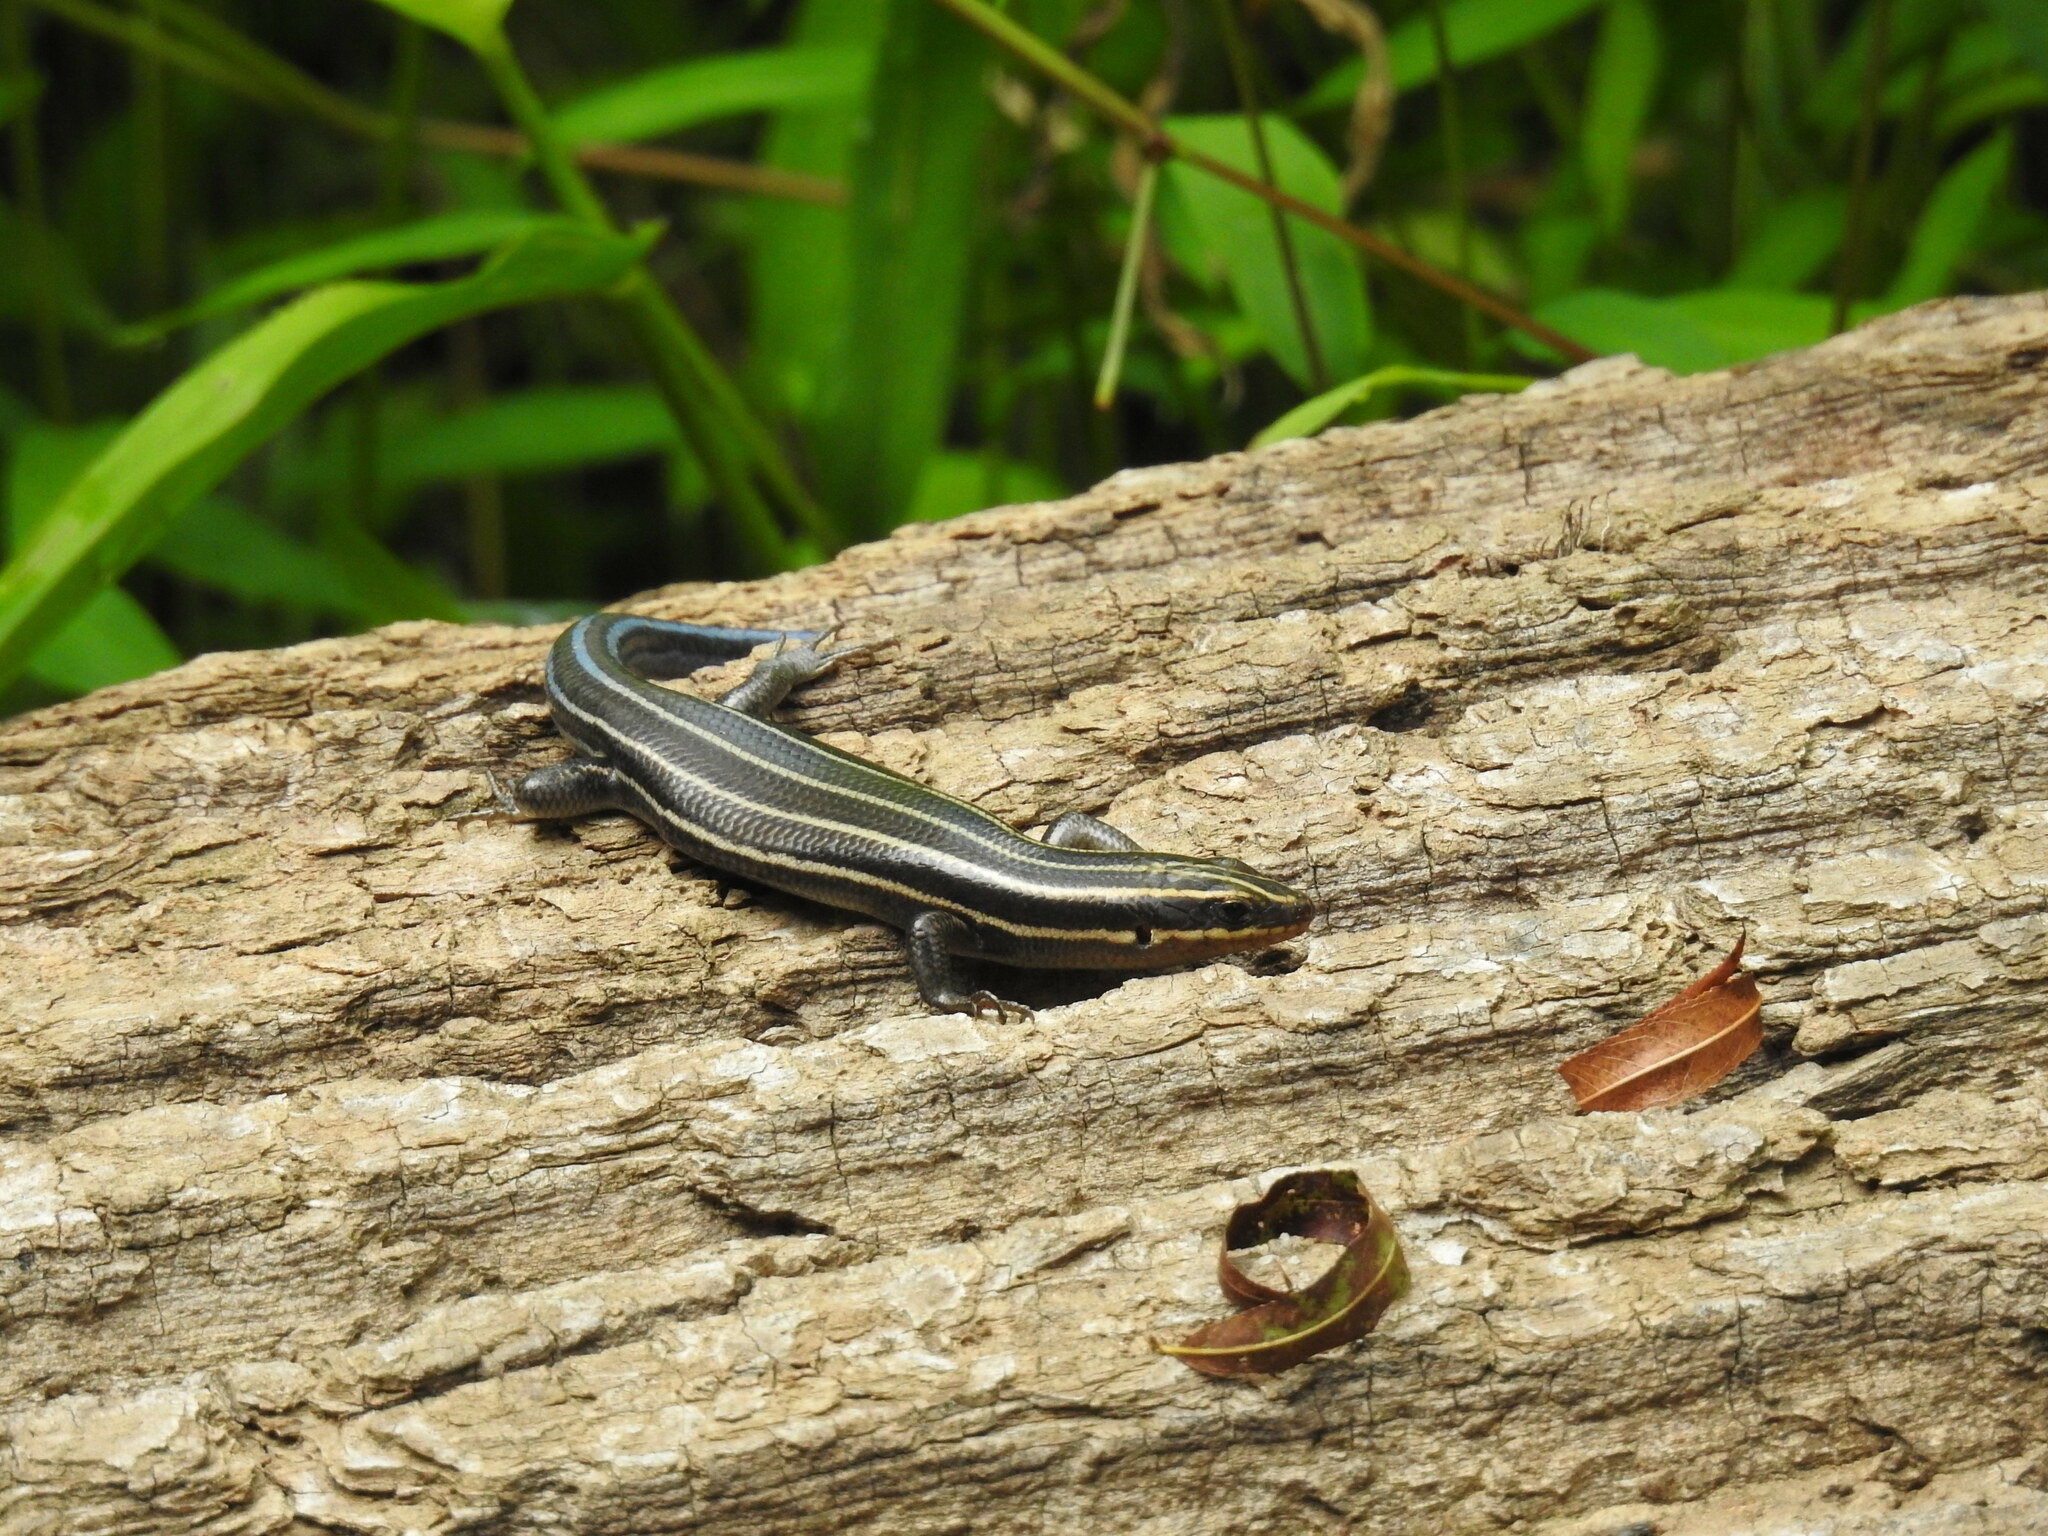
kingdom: Animalia
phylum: Chordata
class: Squamata
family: Scincidae
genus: Plestiodon
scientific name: Plestiodon fasciatus
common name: Five-lined skink
